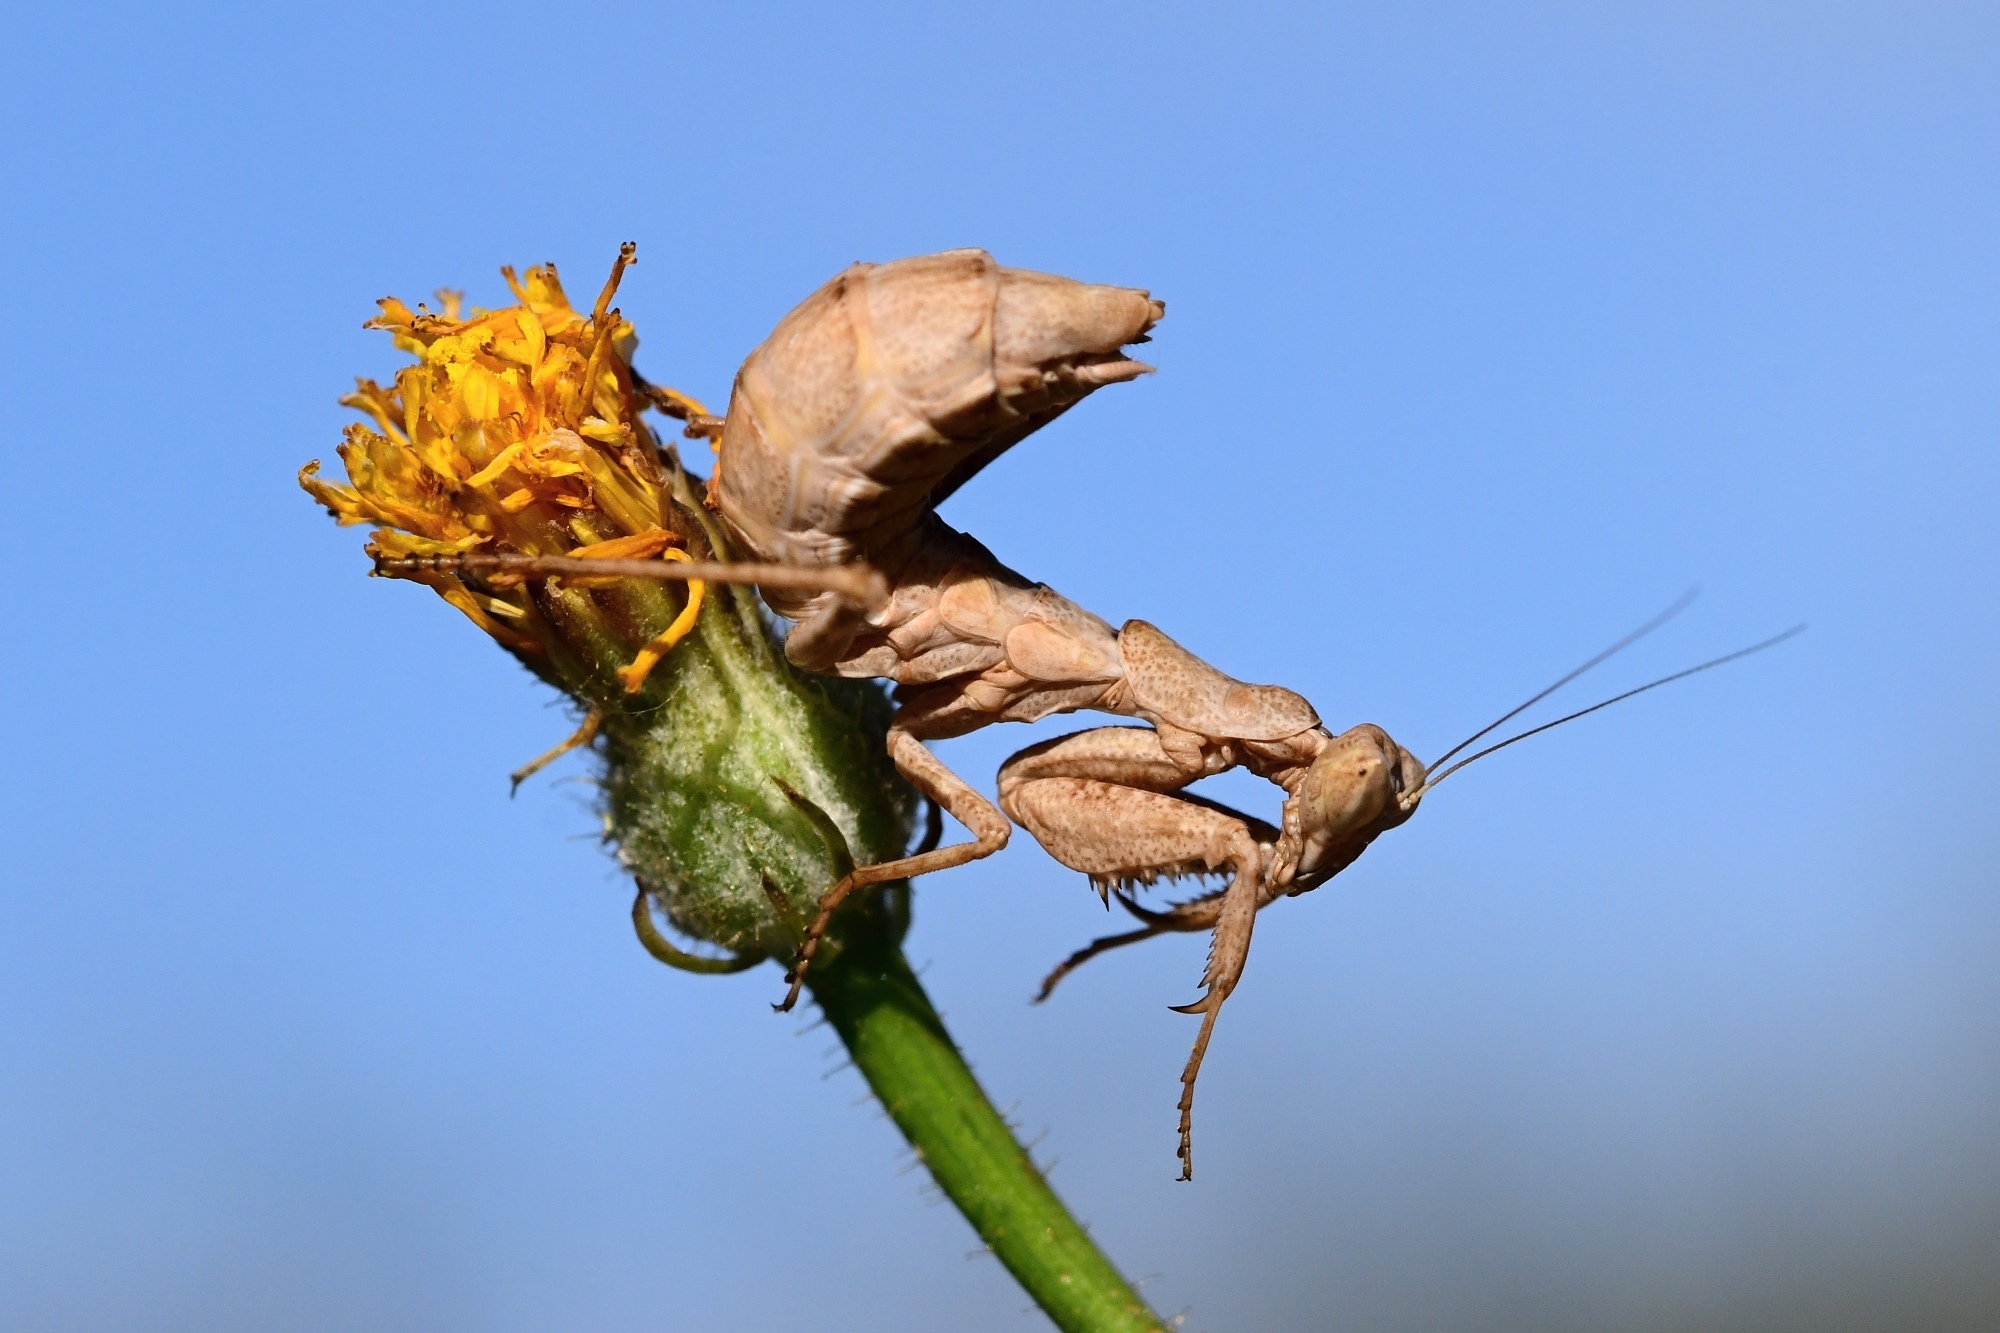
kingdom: Animalia
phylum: Arthropoda
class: Insecta
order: Mantodea
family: Amelidae
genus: Ameles
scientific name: Ameles spallanzania
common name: European dwarf mantis
